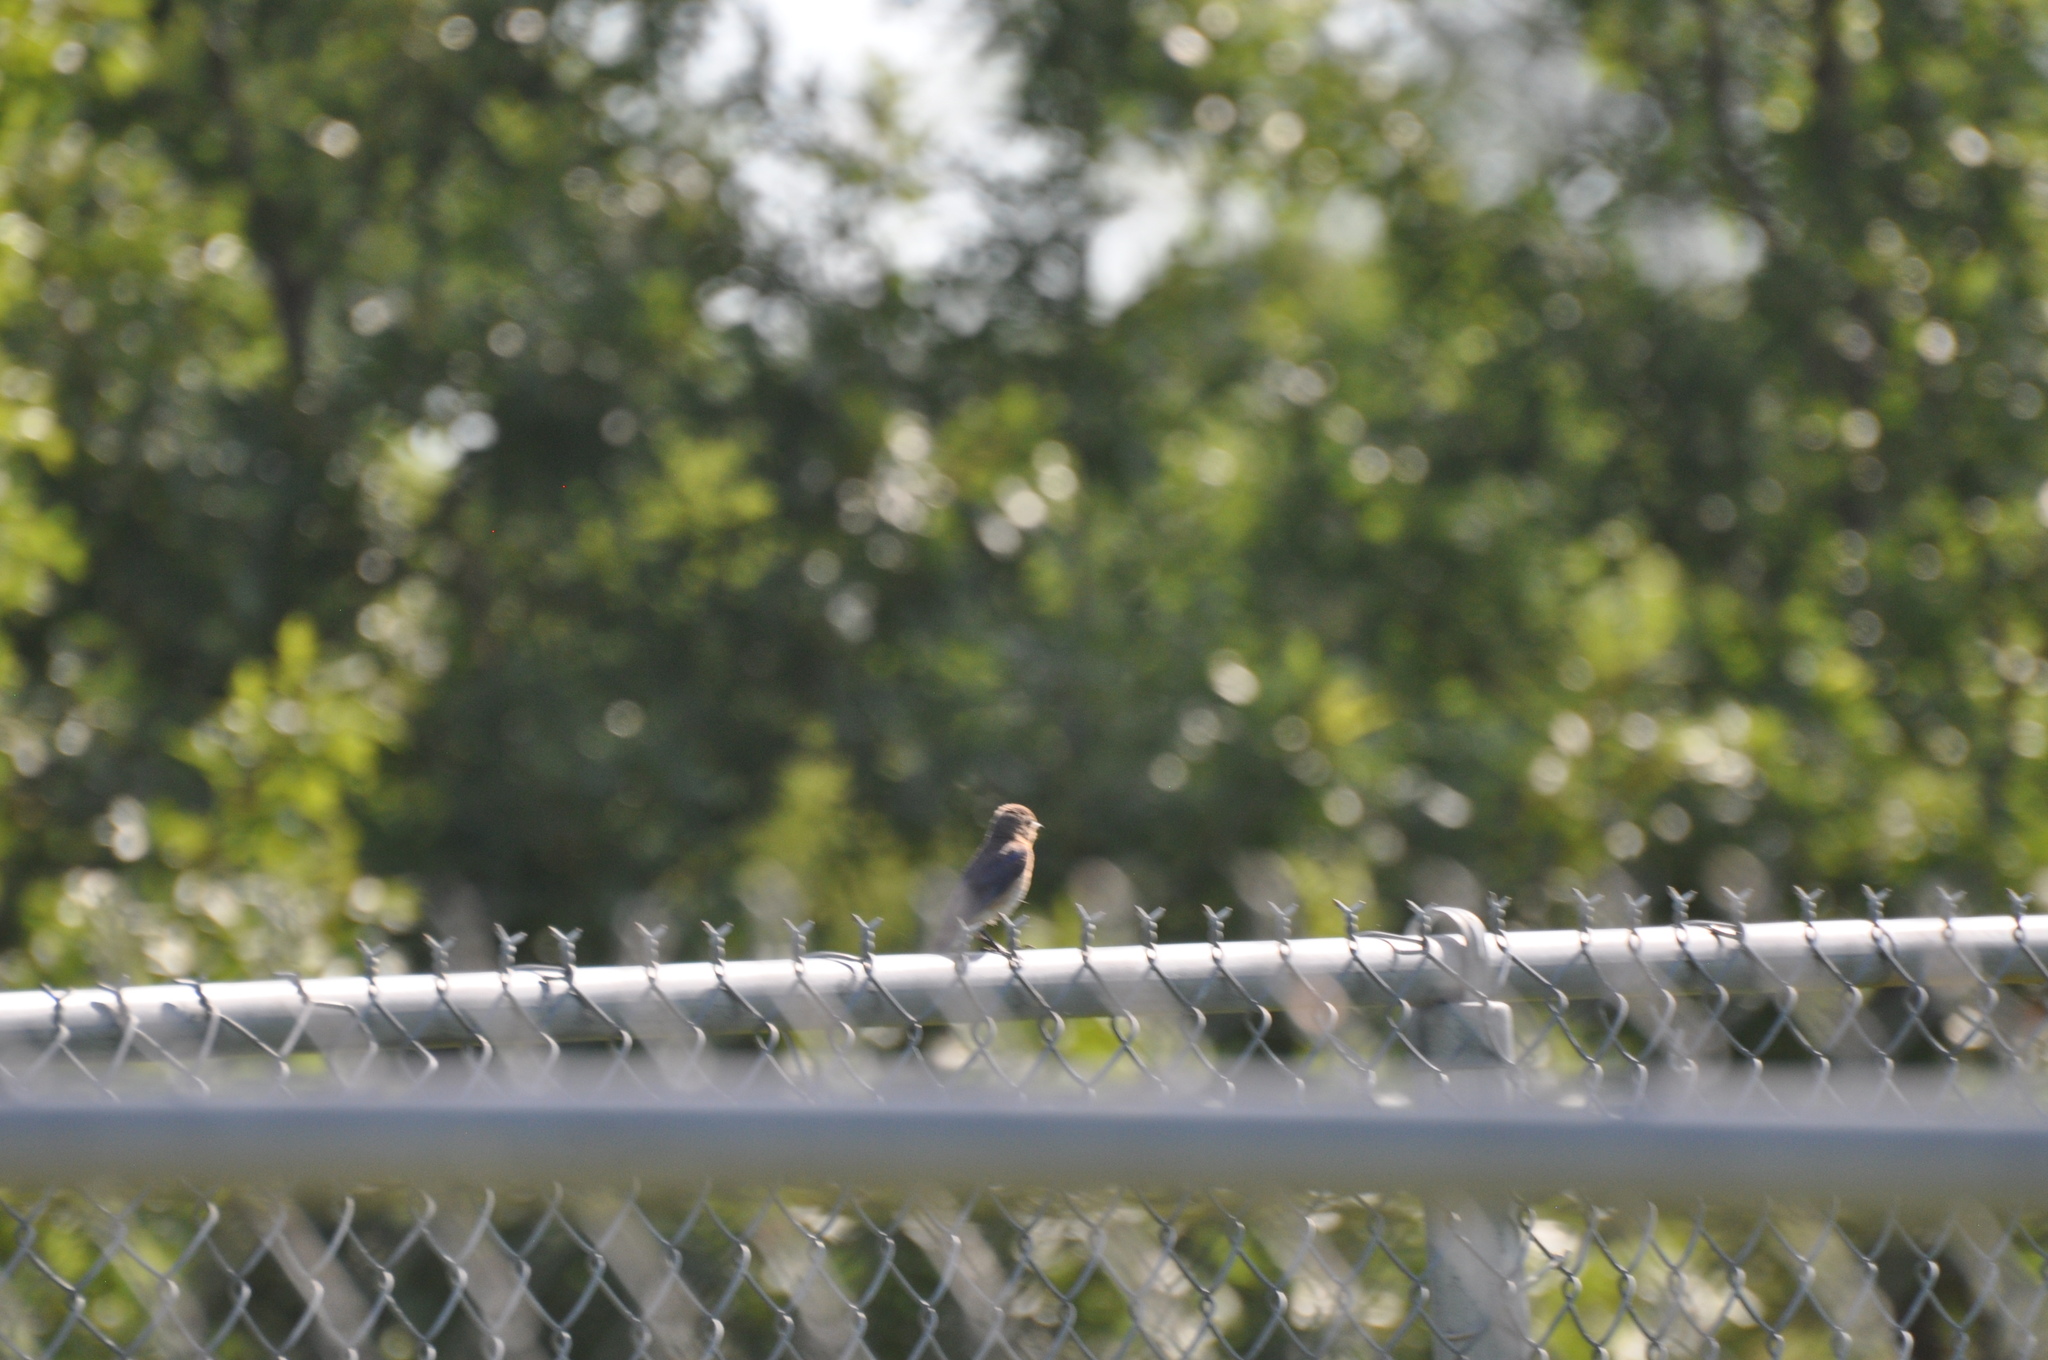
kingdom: Animalia
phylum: Chordata
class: Aves
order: Passeriformes
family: Turdidae
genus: Sialia
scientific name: Sialia sialis
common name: Eastern bluebird
